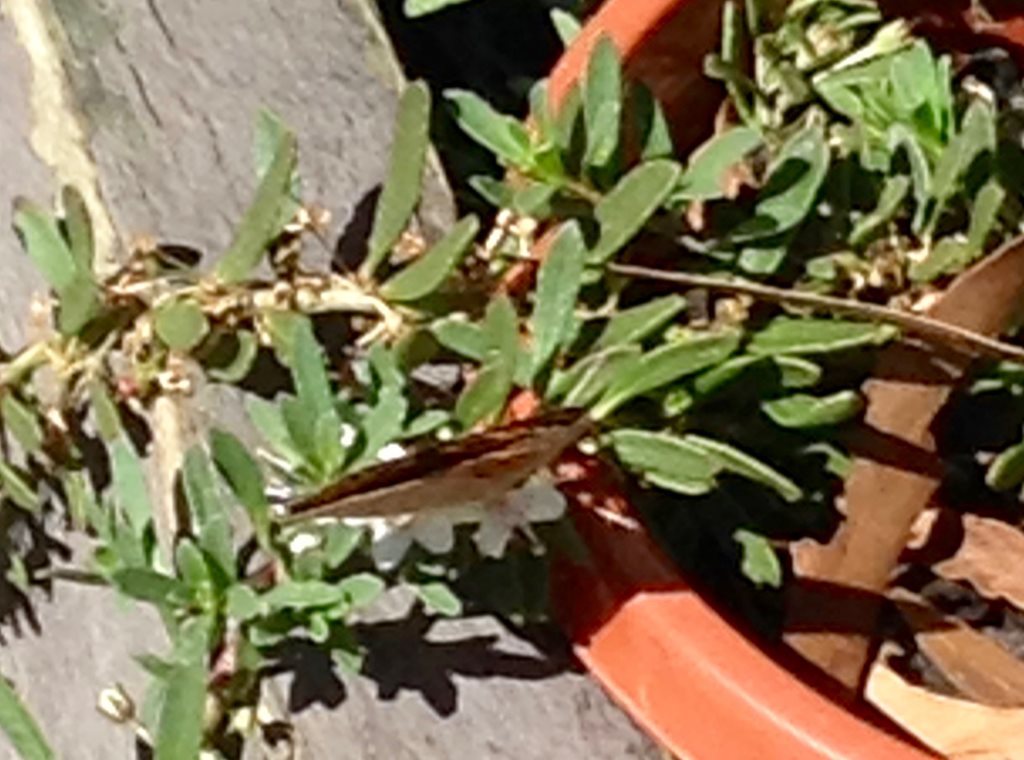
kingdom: Animalia
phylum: Arthropoda
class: Insecta
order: Lepidoptera
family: Nymphalidae
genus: Junonia
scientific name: Junonia villida
